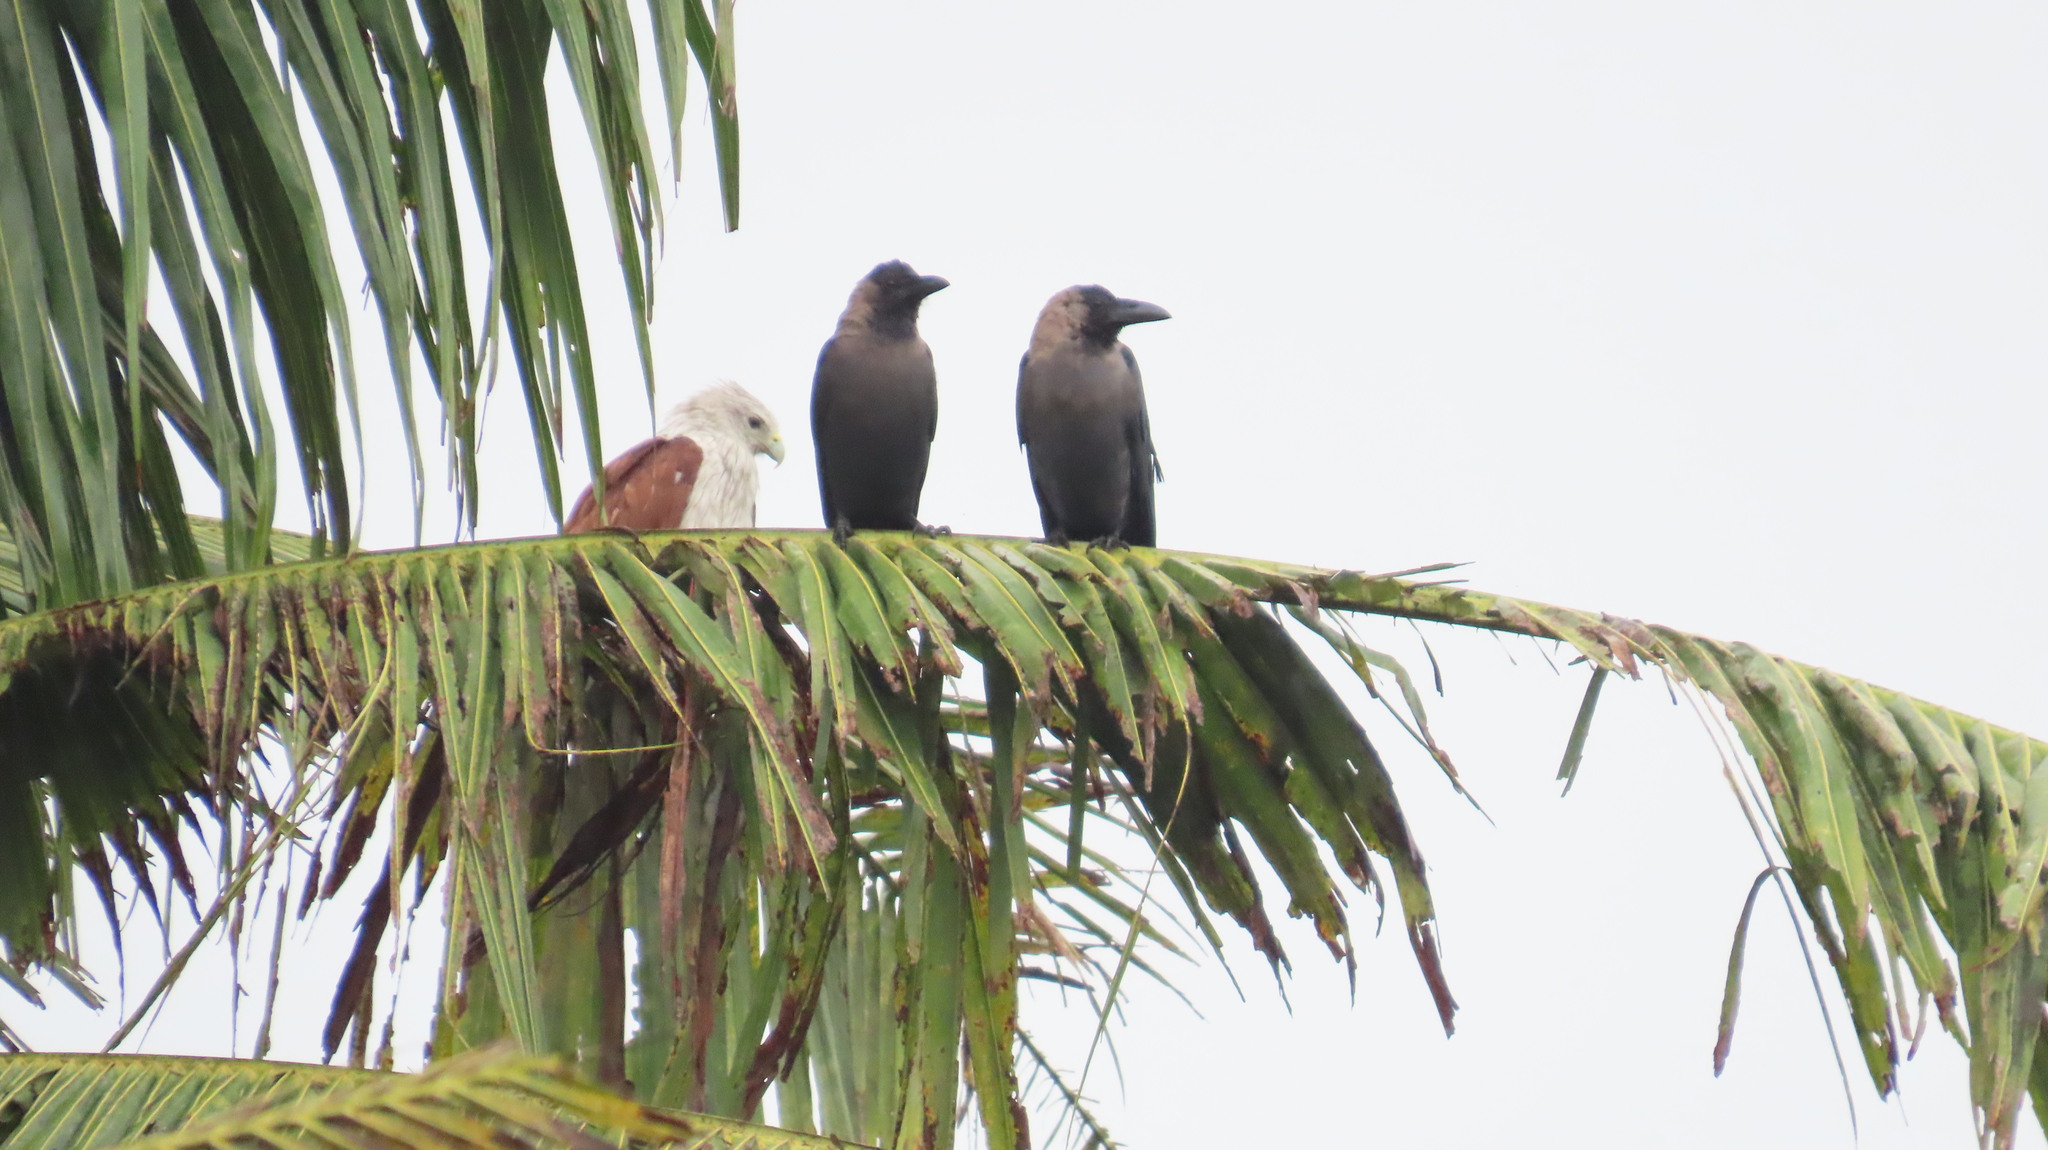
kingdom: Animalia
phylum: Chordata
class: Aves
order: Accipitriformes
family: Accipitridae
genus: Haliastur
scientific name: Haliastur indus
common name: Brahminy kite
